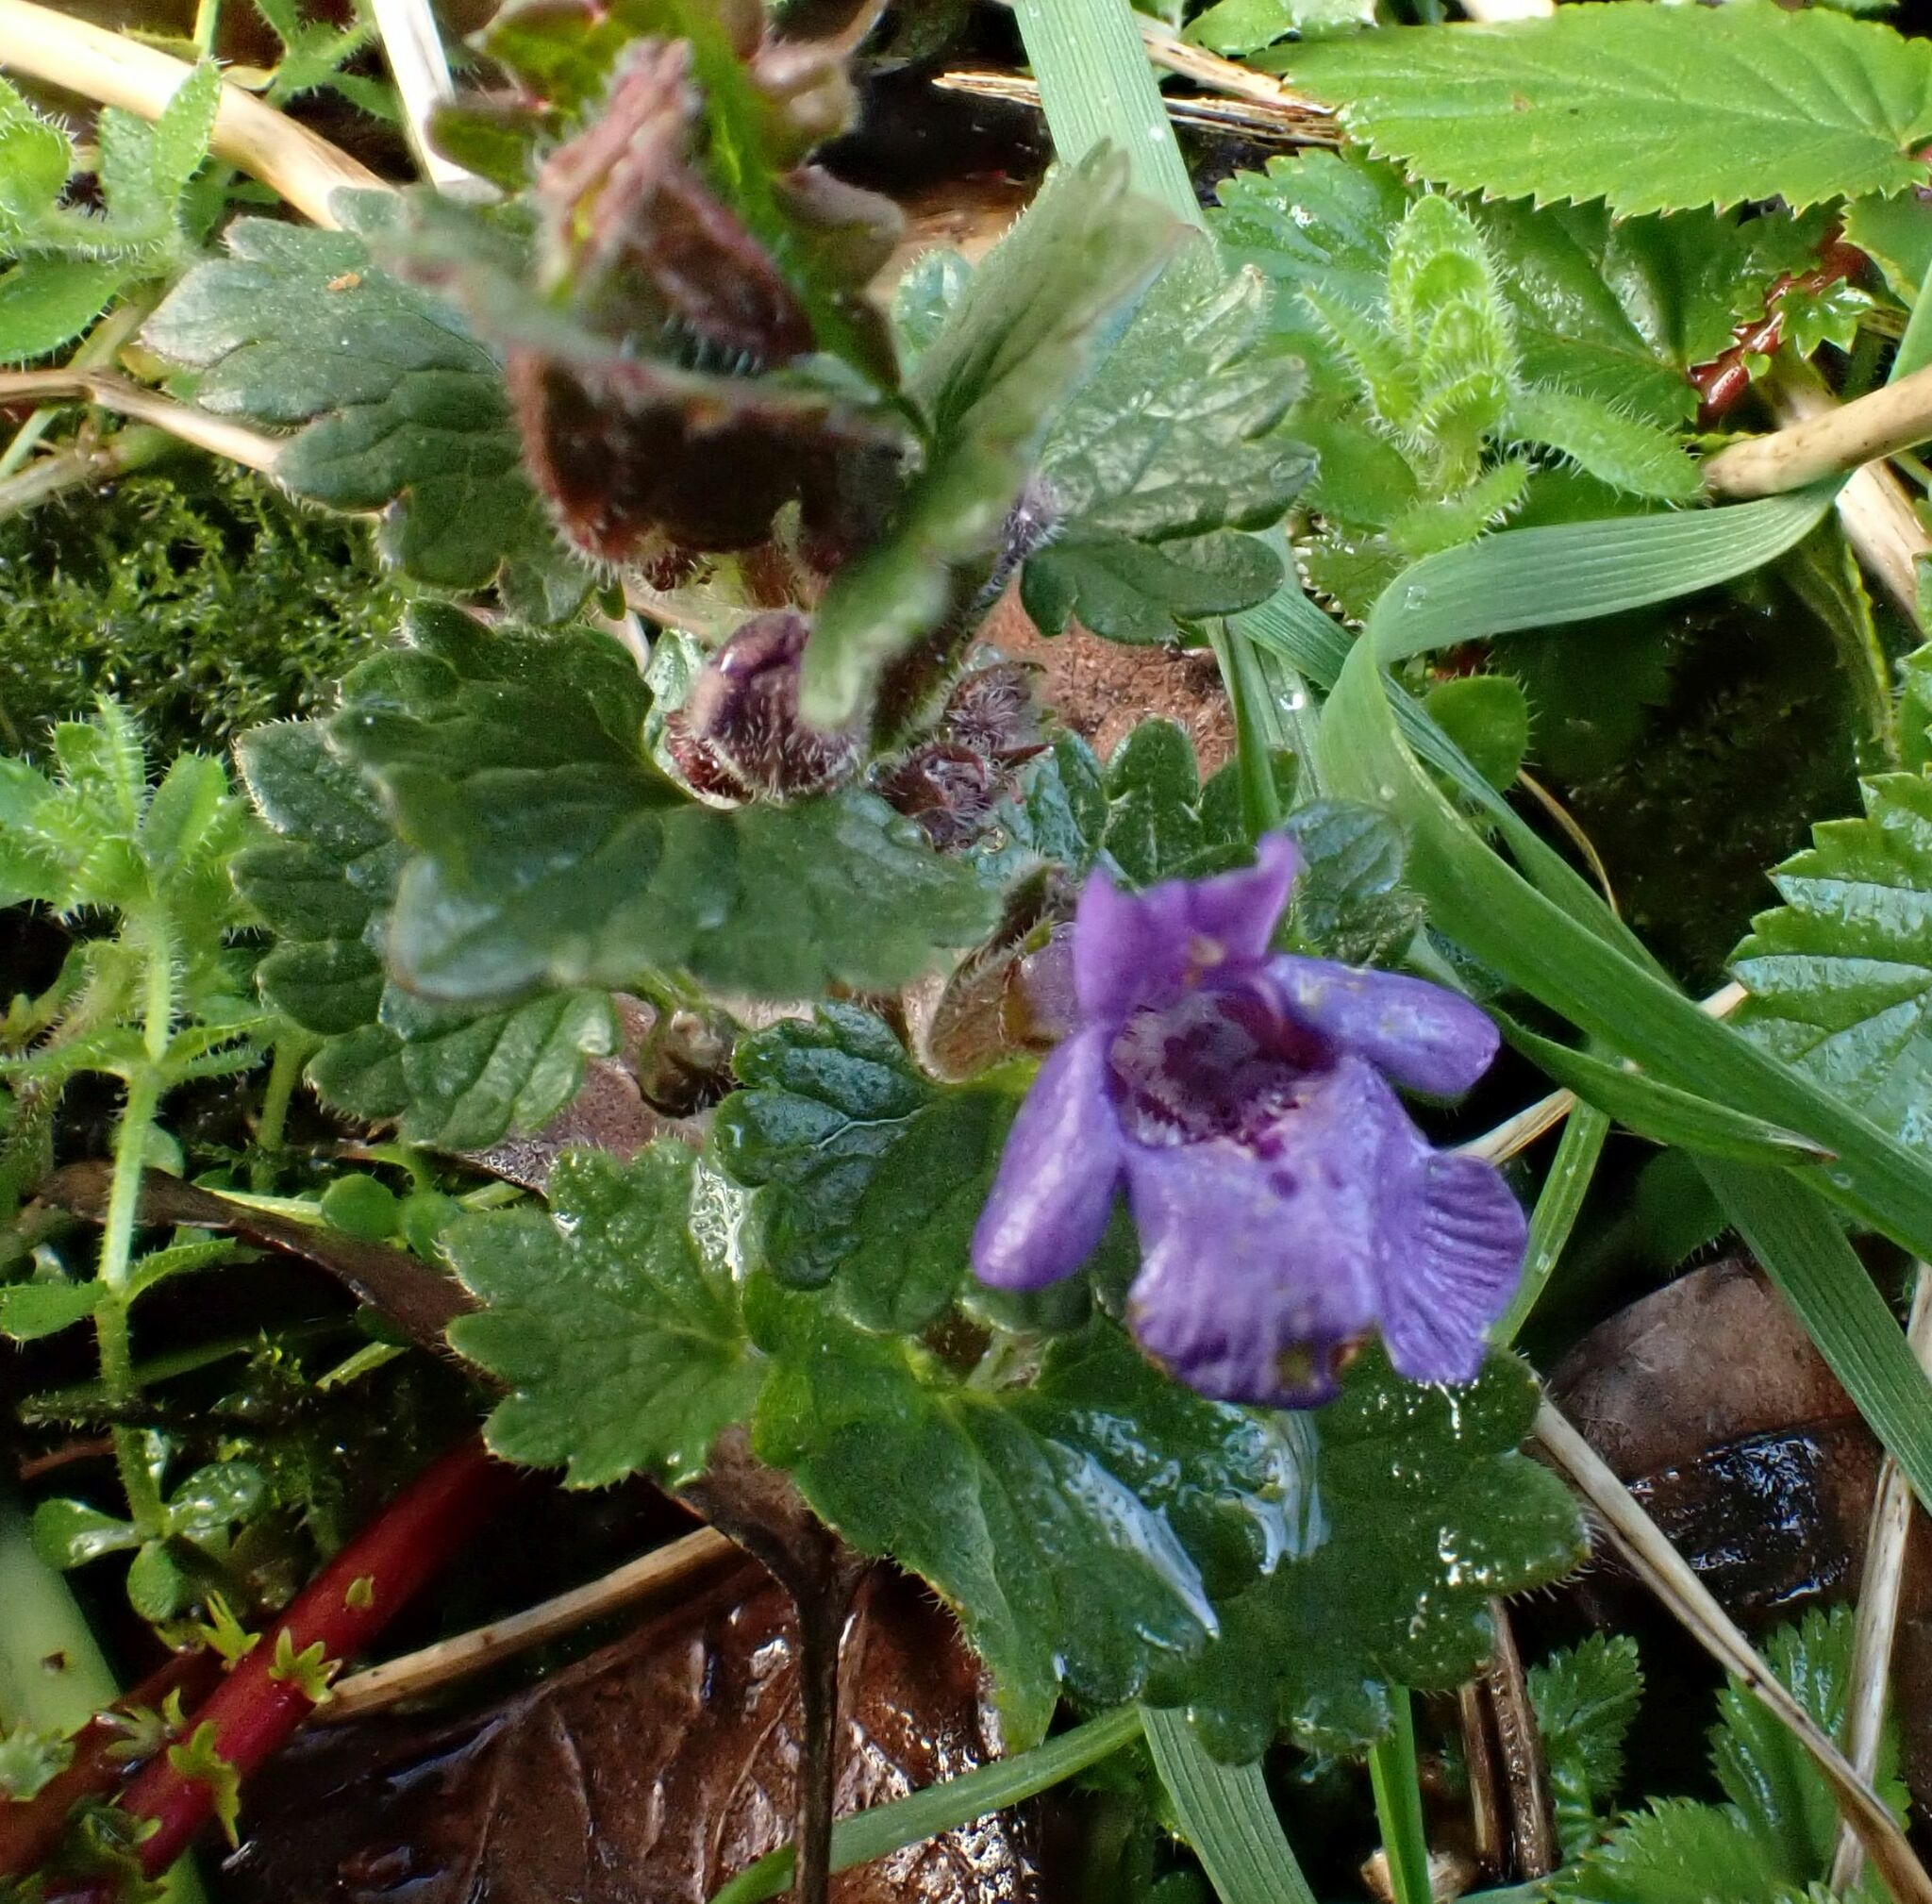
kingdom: Plantae
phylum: Tracheophyta
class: Magnoliopsida
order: Lamiales
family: Lamiaceae
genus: Glechoma
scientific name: Glechoma hederacea
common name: Ground ivy
